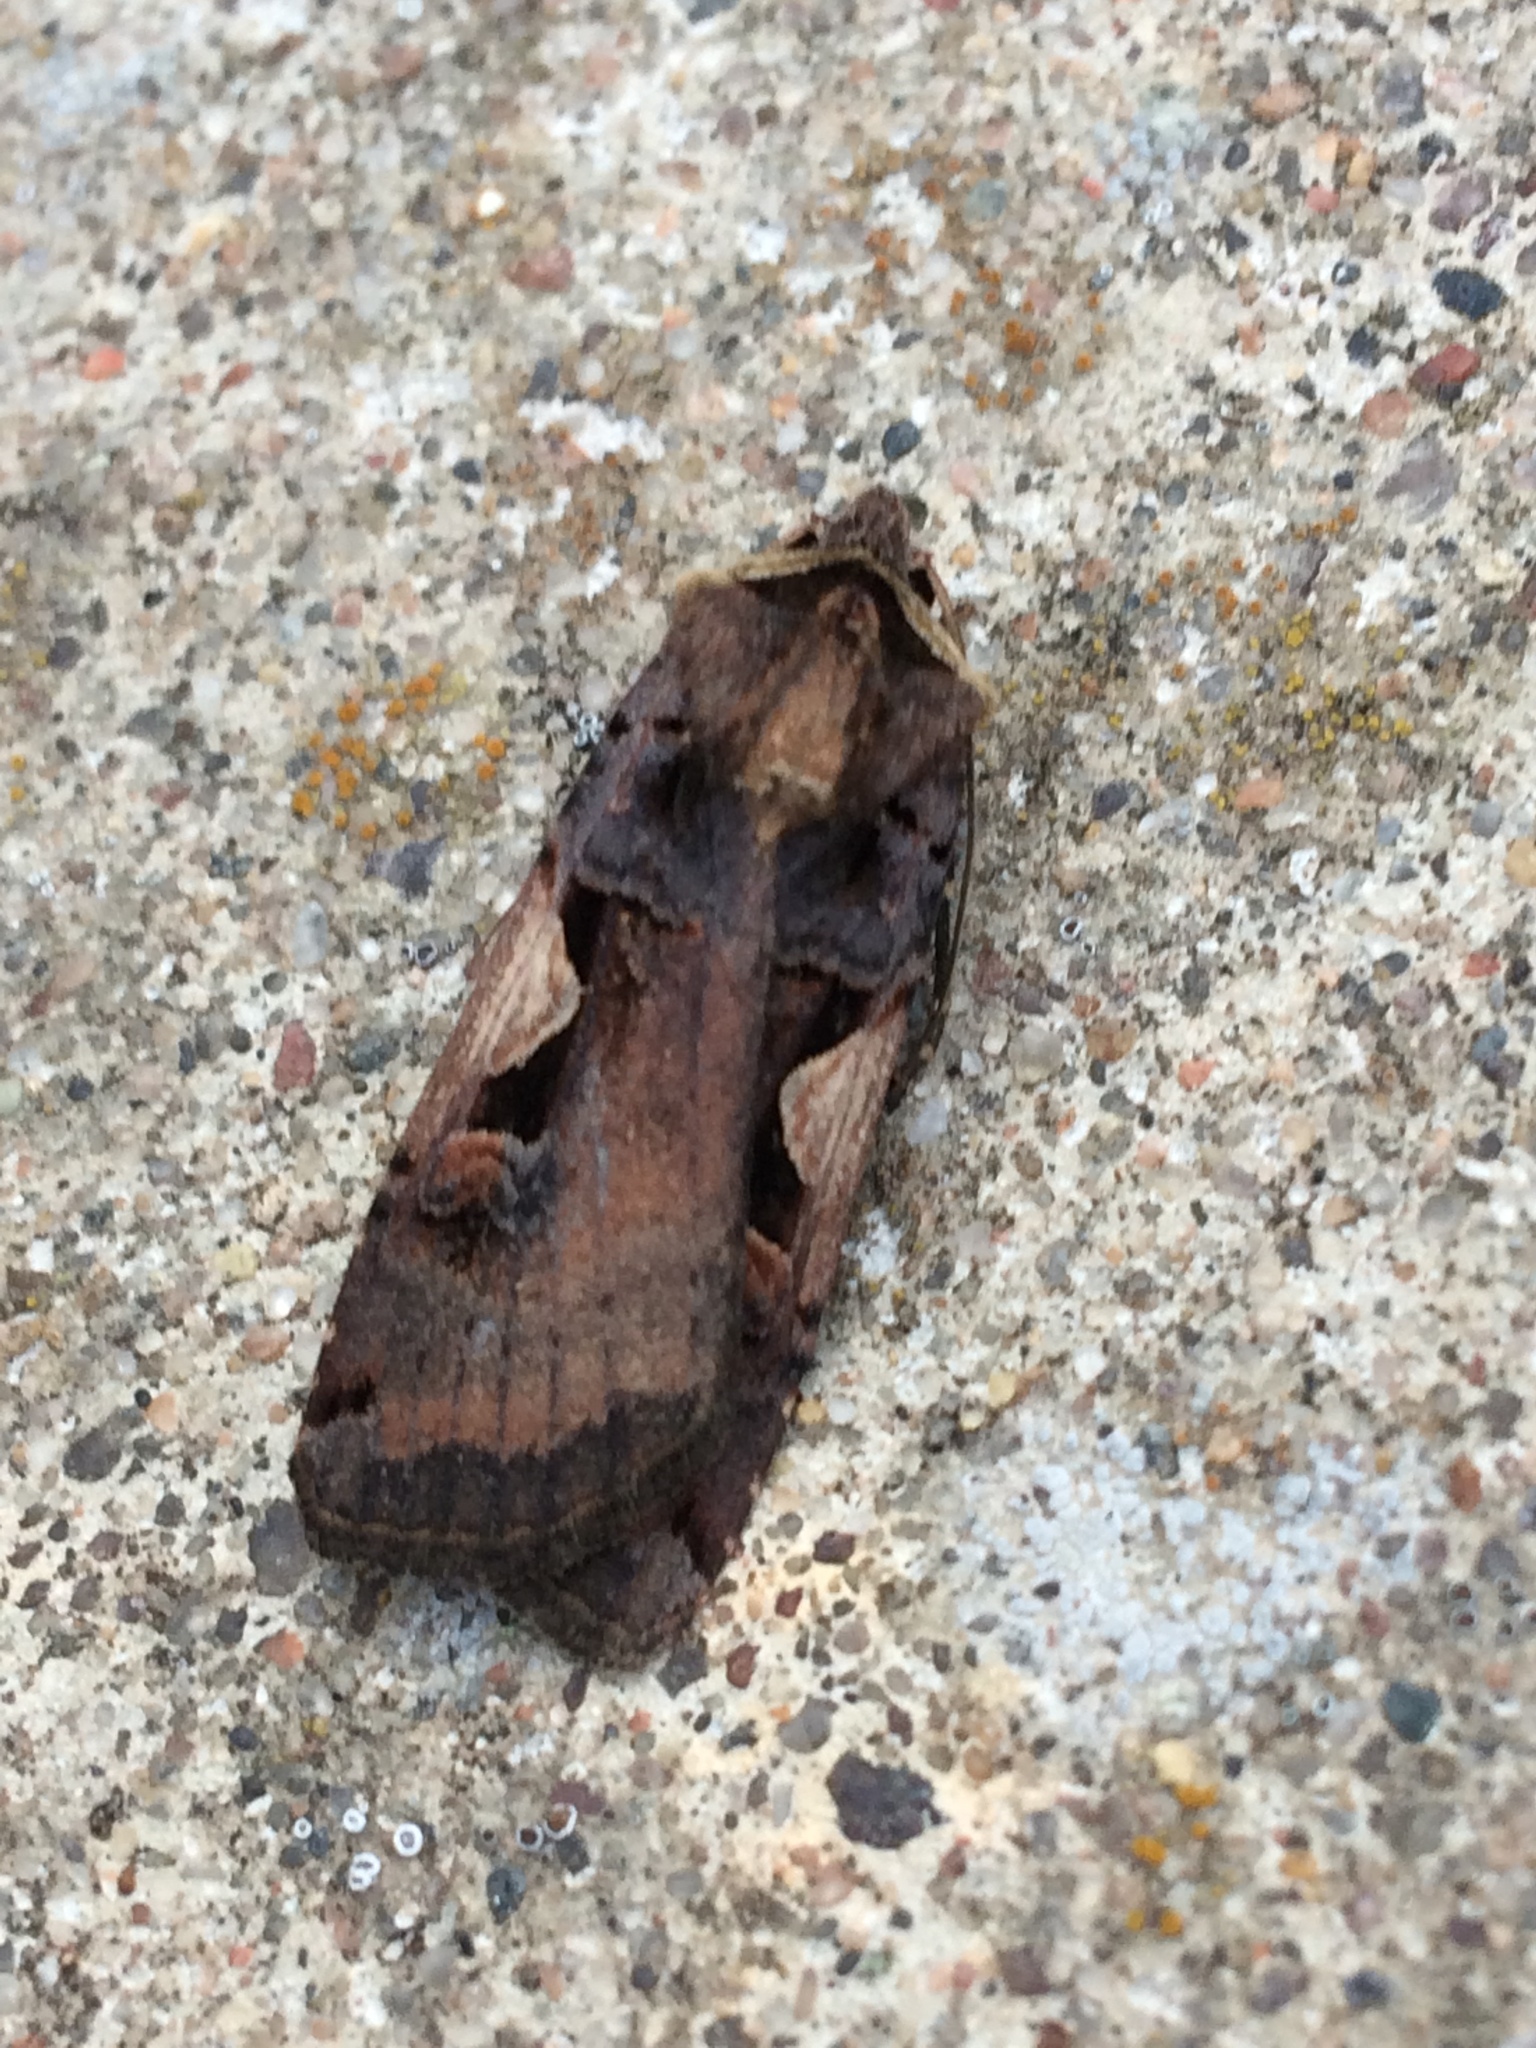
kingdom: Animalia
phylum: Arthropoda
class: Insecta
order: Lepidoptera
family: Noctuidae
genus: Xestia
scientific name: Xestia c-nigrum
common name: Setaceous hebrew character
